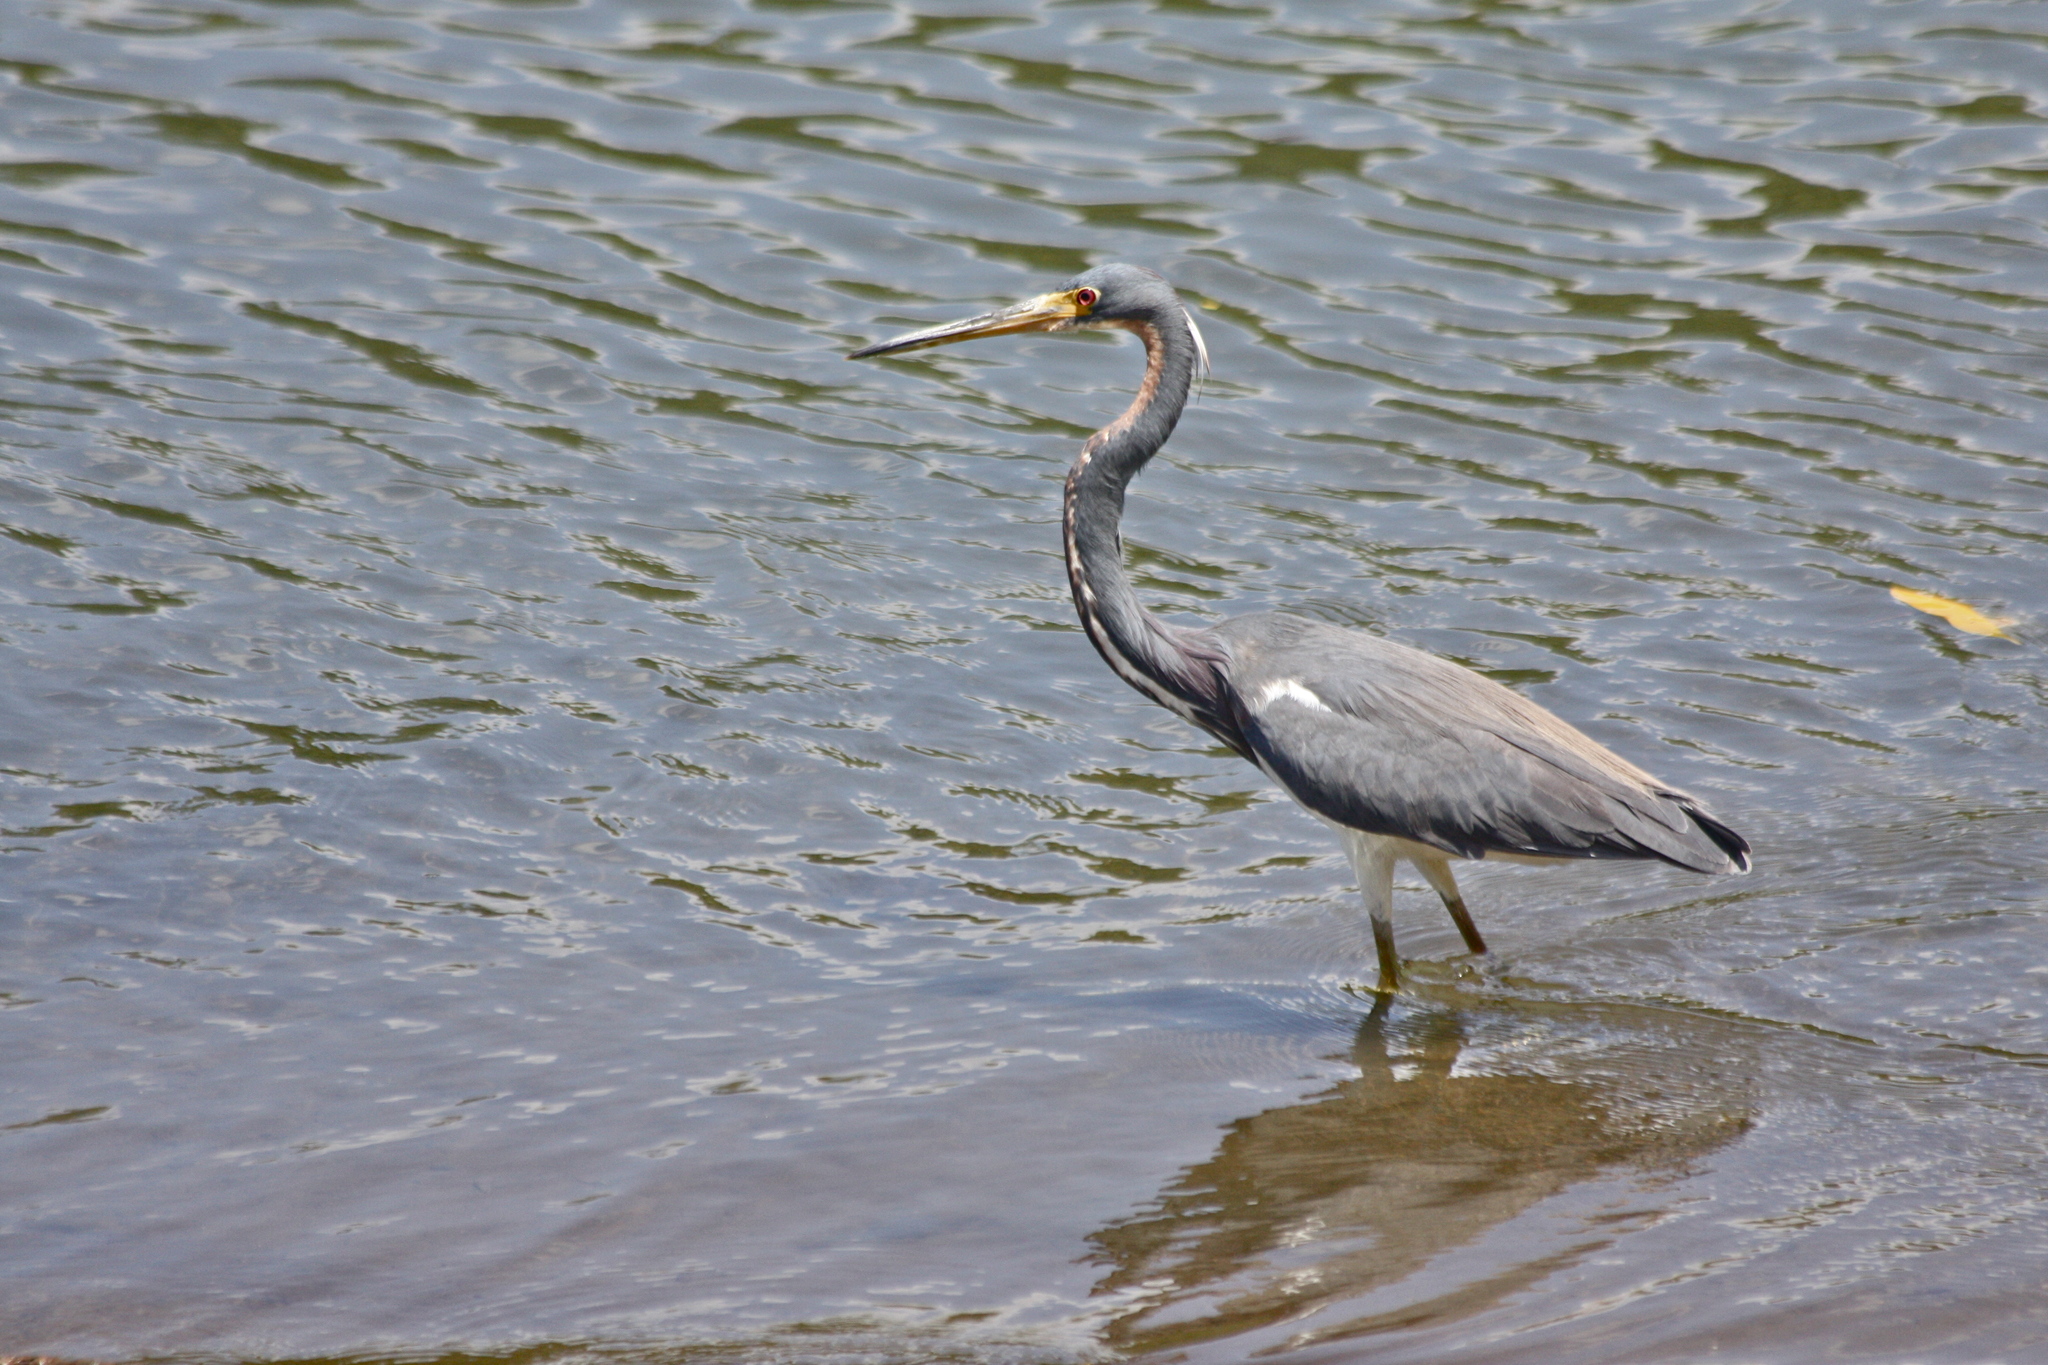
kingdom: Animalia
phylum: Chordata
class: Aves
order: Pelecaniformes
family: Ardeidae
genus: Egretta
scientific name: Egretta tricolor
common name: Tricolored heron
